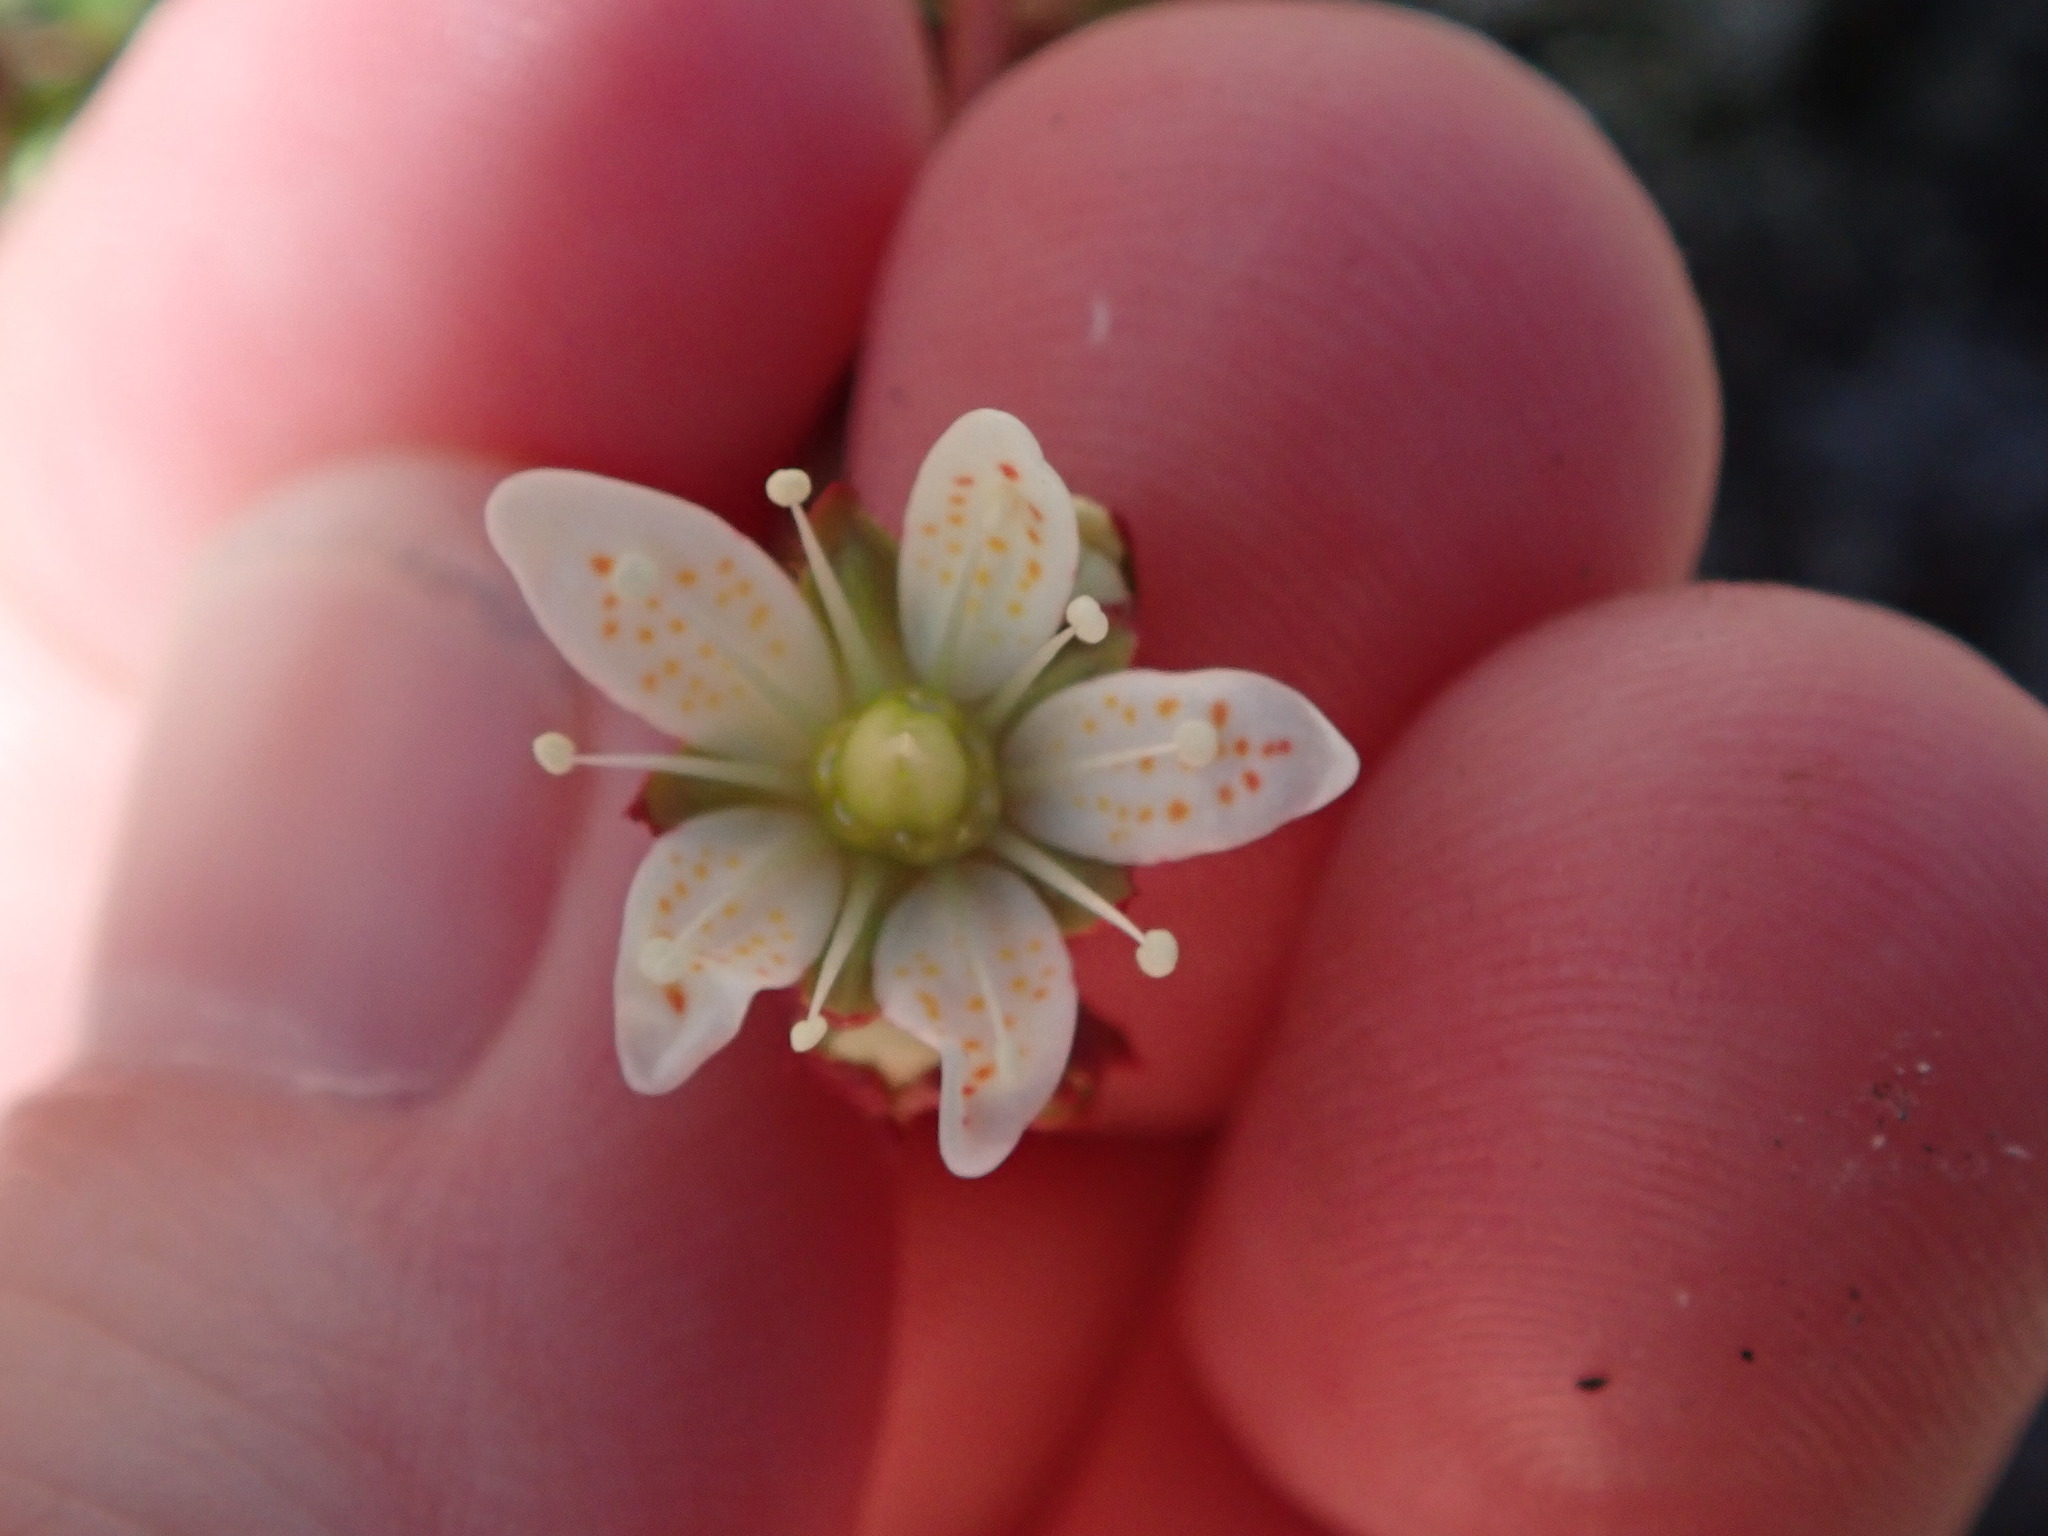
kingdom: Plantae
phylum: Tracheophyta
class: Magnoliopsida
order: Saxifragales
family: Saxifragaceae
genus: Saxifraga
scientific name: Saxifraga tricuspidata
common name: Prickly saxifrage
